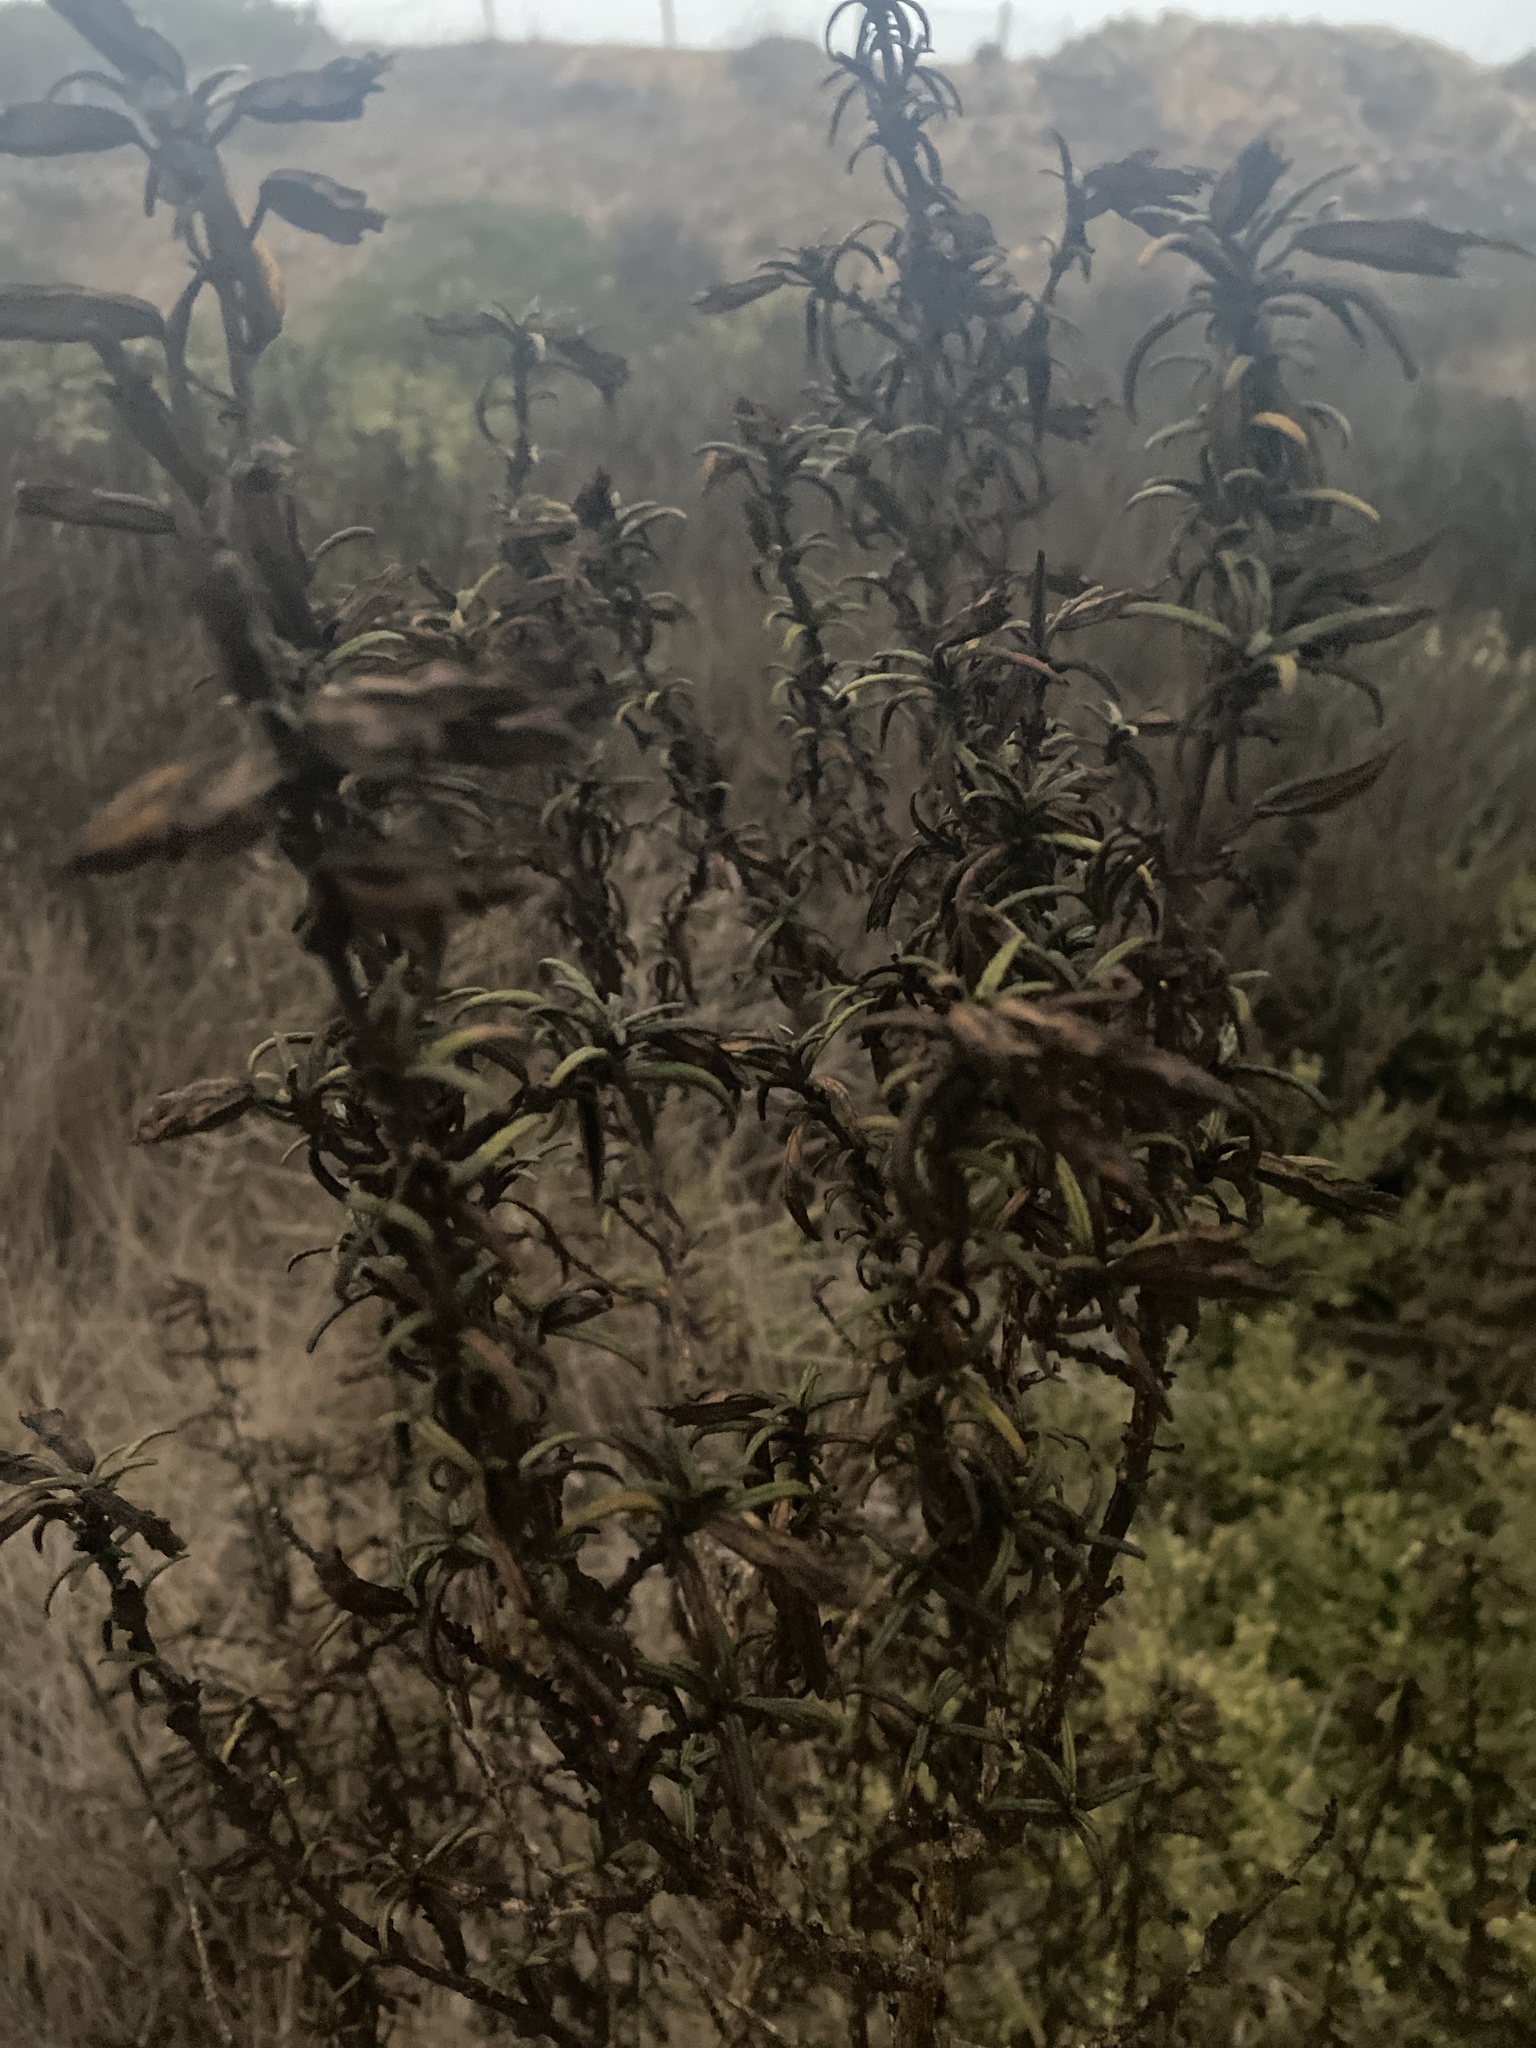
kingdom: Plantae
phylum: Tracheophyta
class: Magnoliopsida
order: Lamiales
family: Phrymaceae
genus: Diplacus
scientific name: Diplacus aurantiacus
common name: Bush monkey-flower
